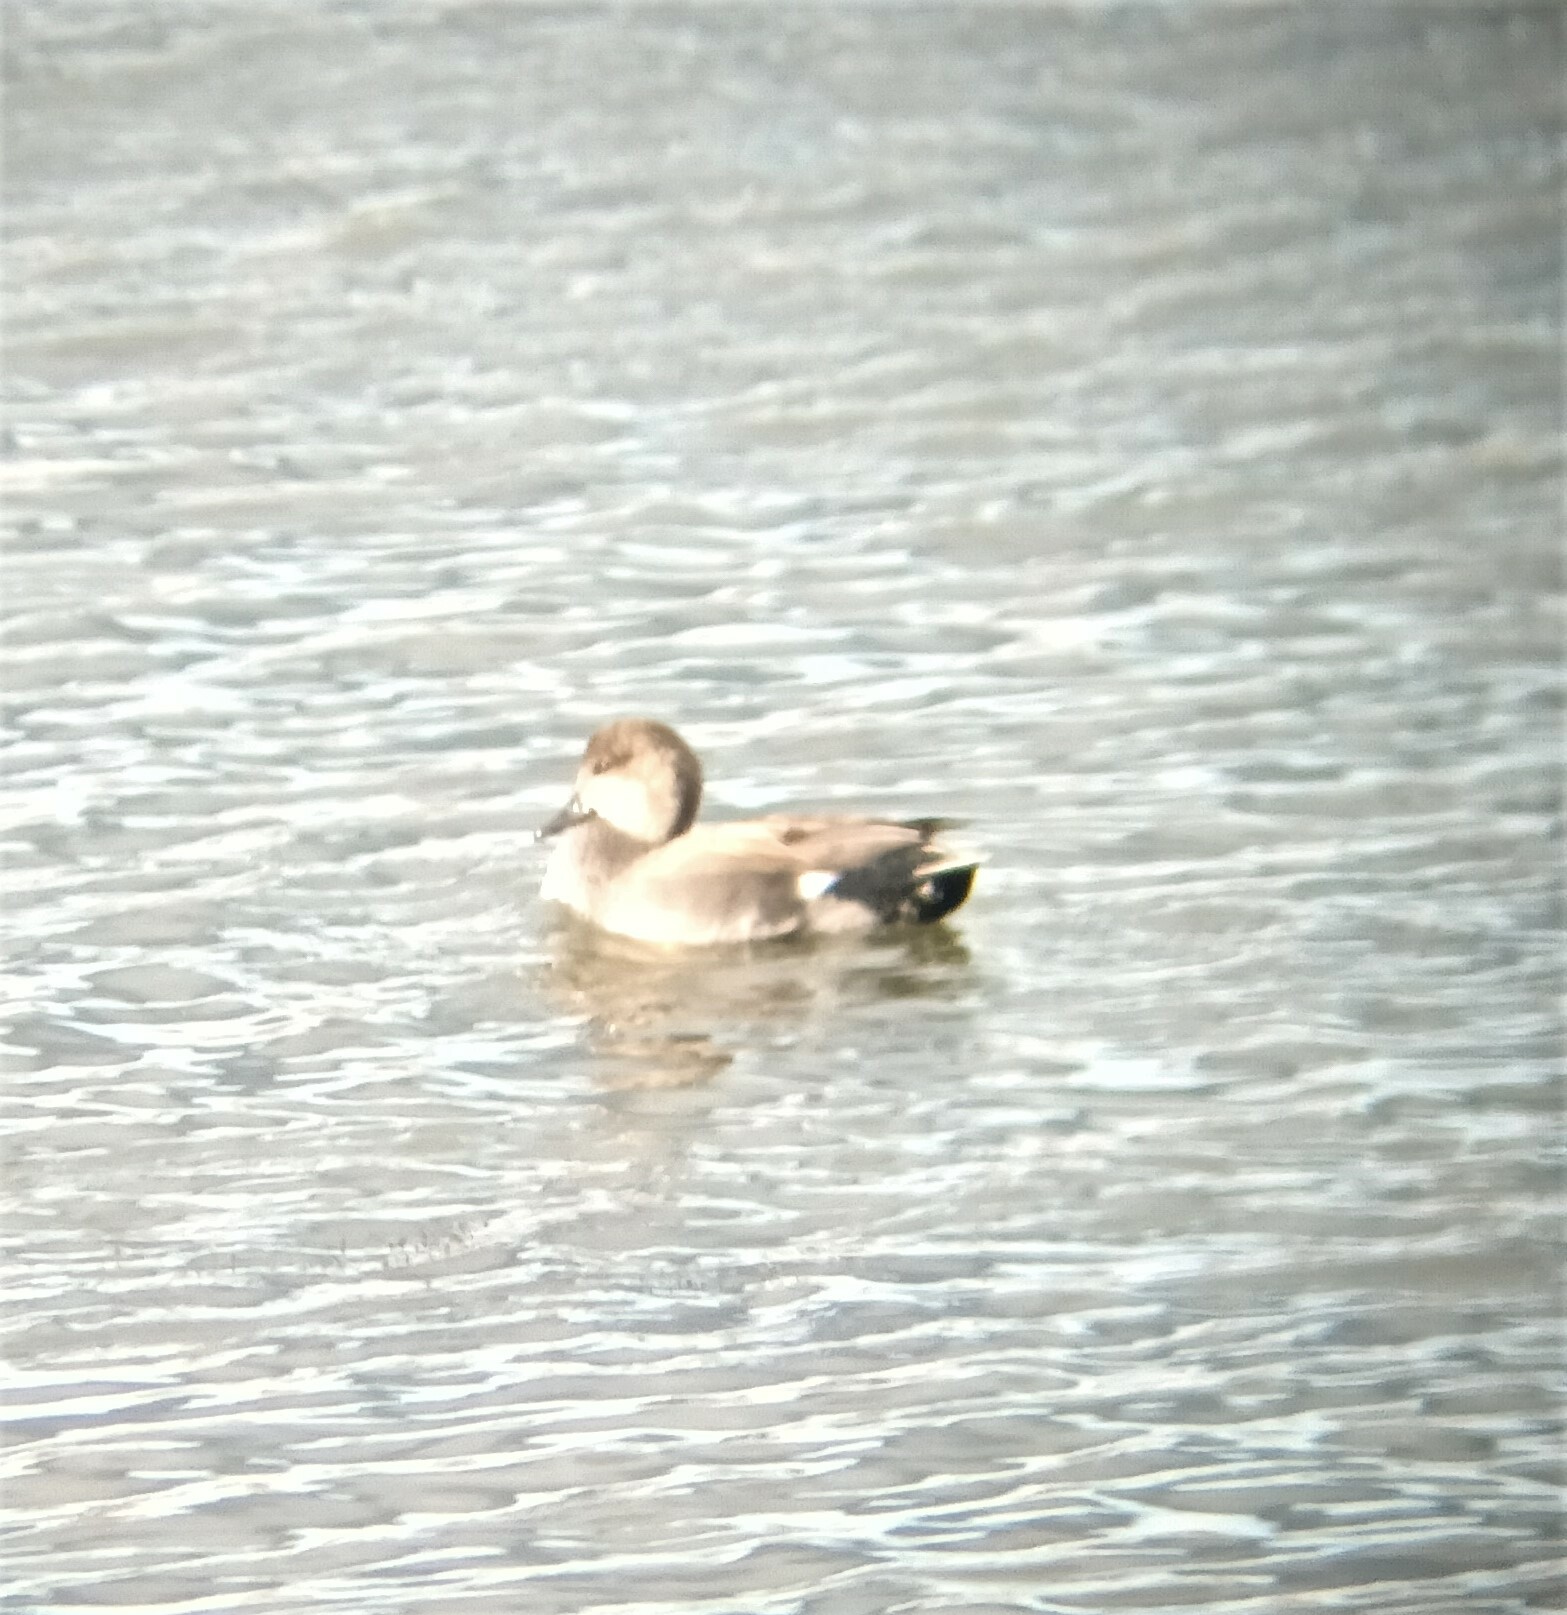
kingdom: Animalia
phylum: Chordata
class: Aves
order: Anseriformes
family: Anatidae
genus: Mareca
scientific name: Mareca strepera
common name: Gadwall
